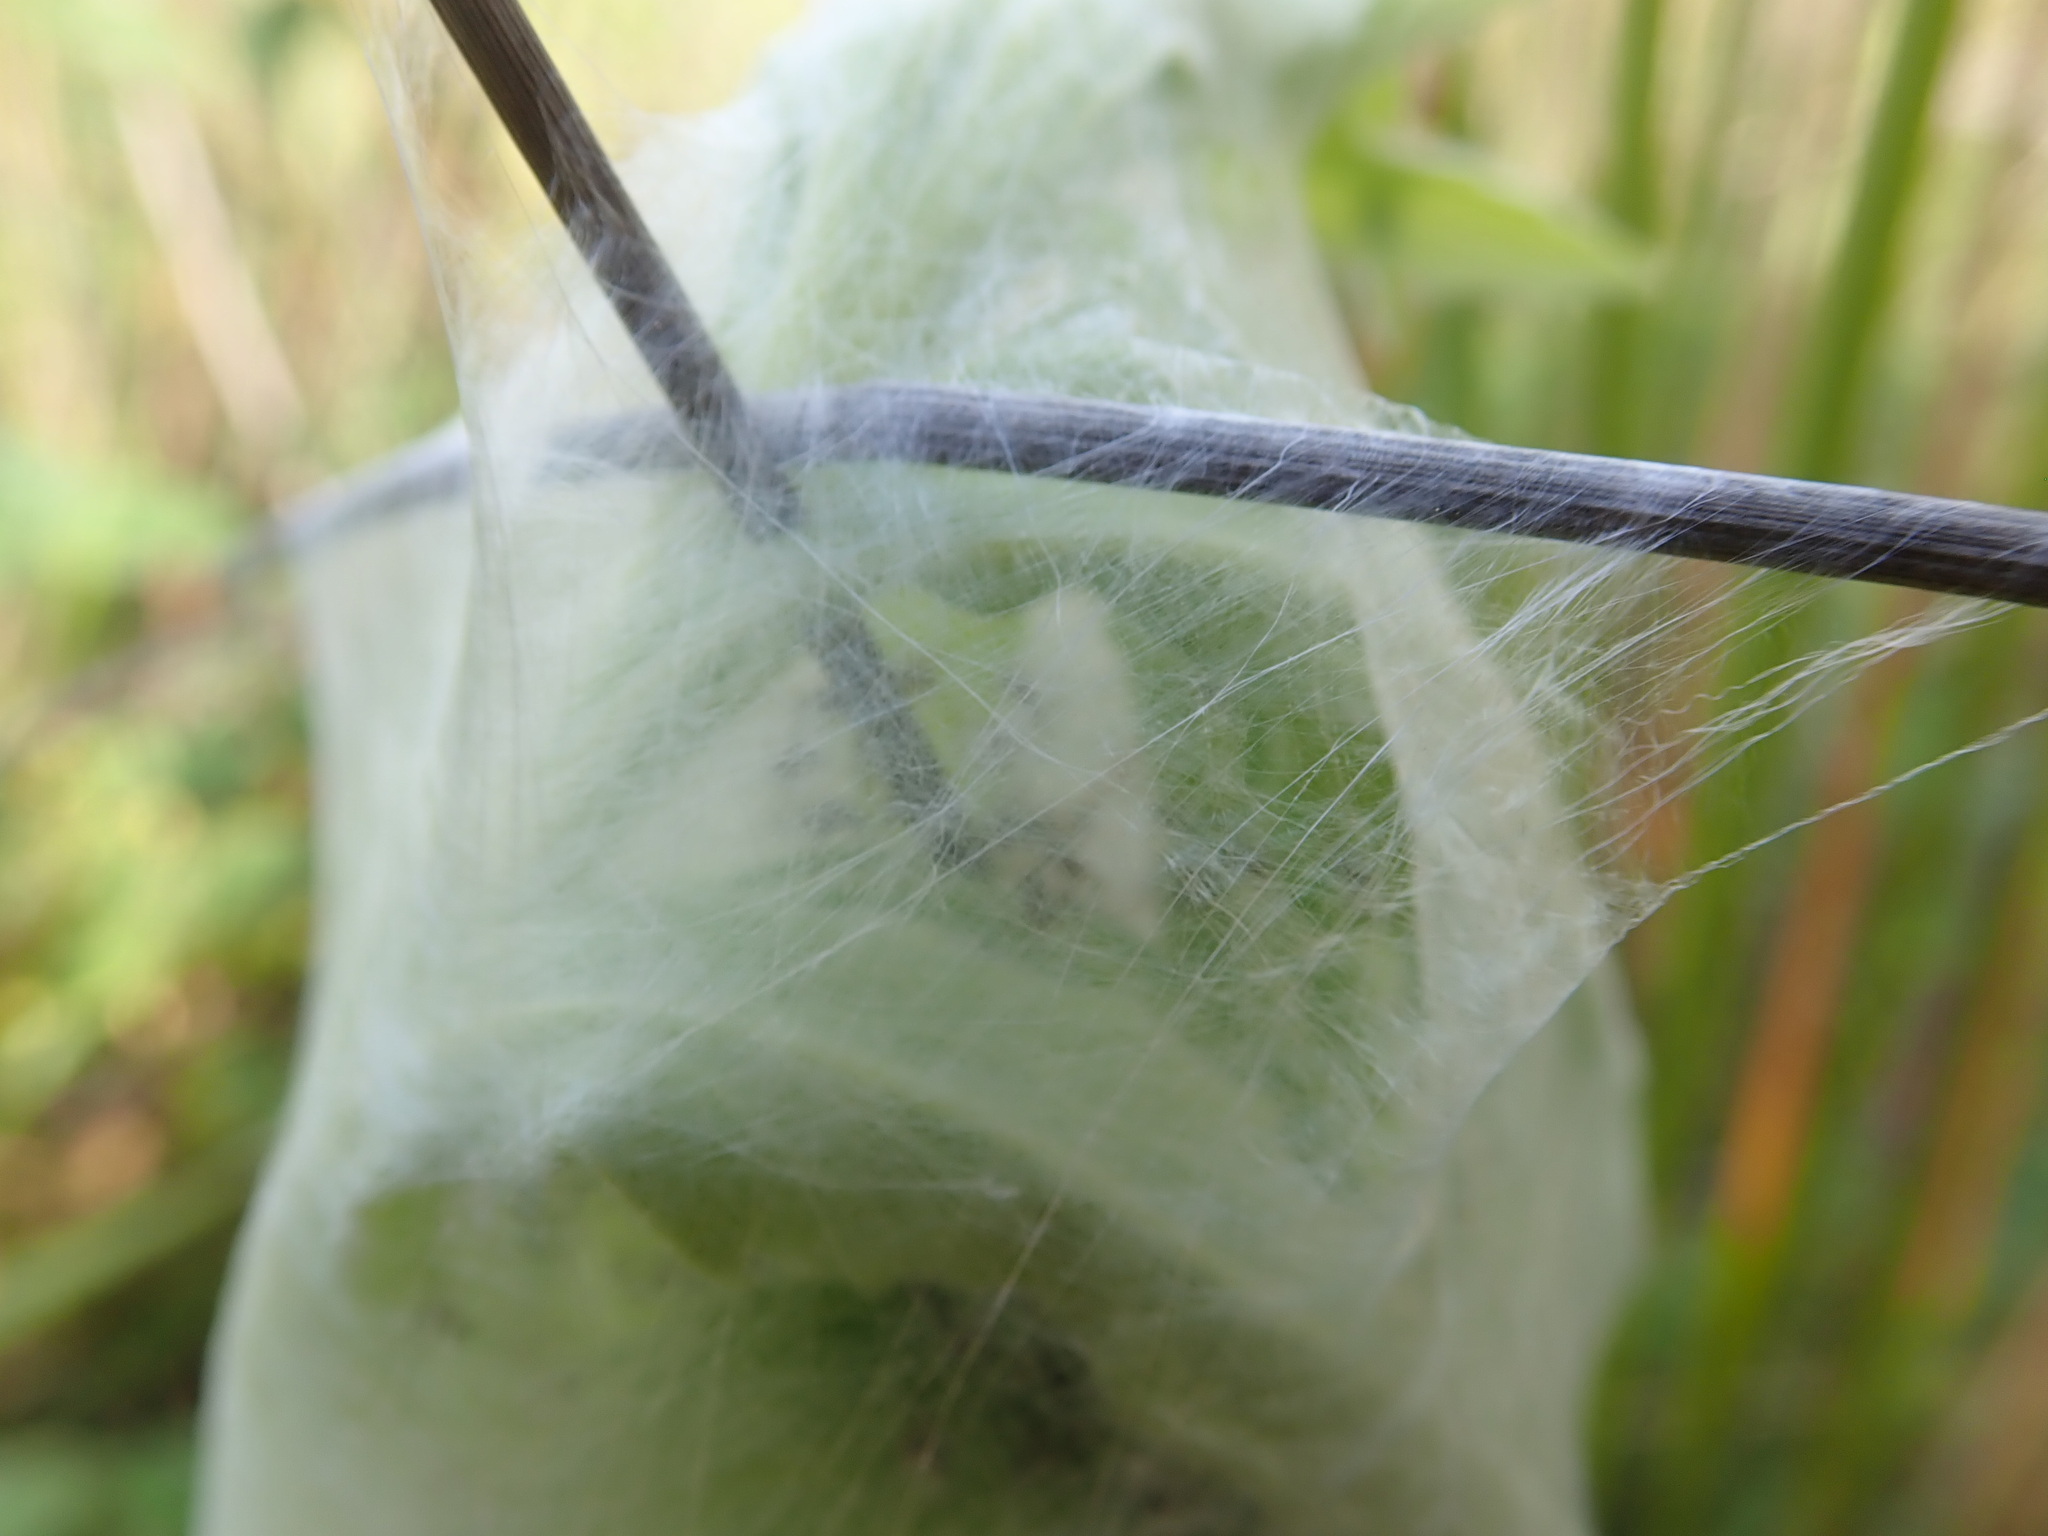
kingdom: Animalia
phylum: Arthropoda
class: Arachnida
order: Araneae
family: Pisauridae
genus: Dolomedes
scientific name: Dolomedes minor
